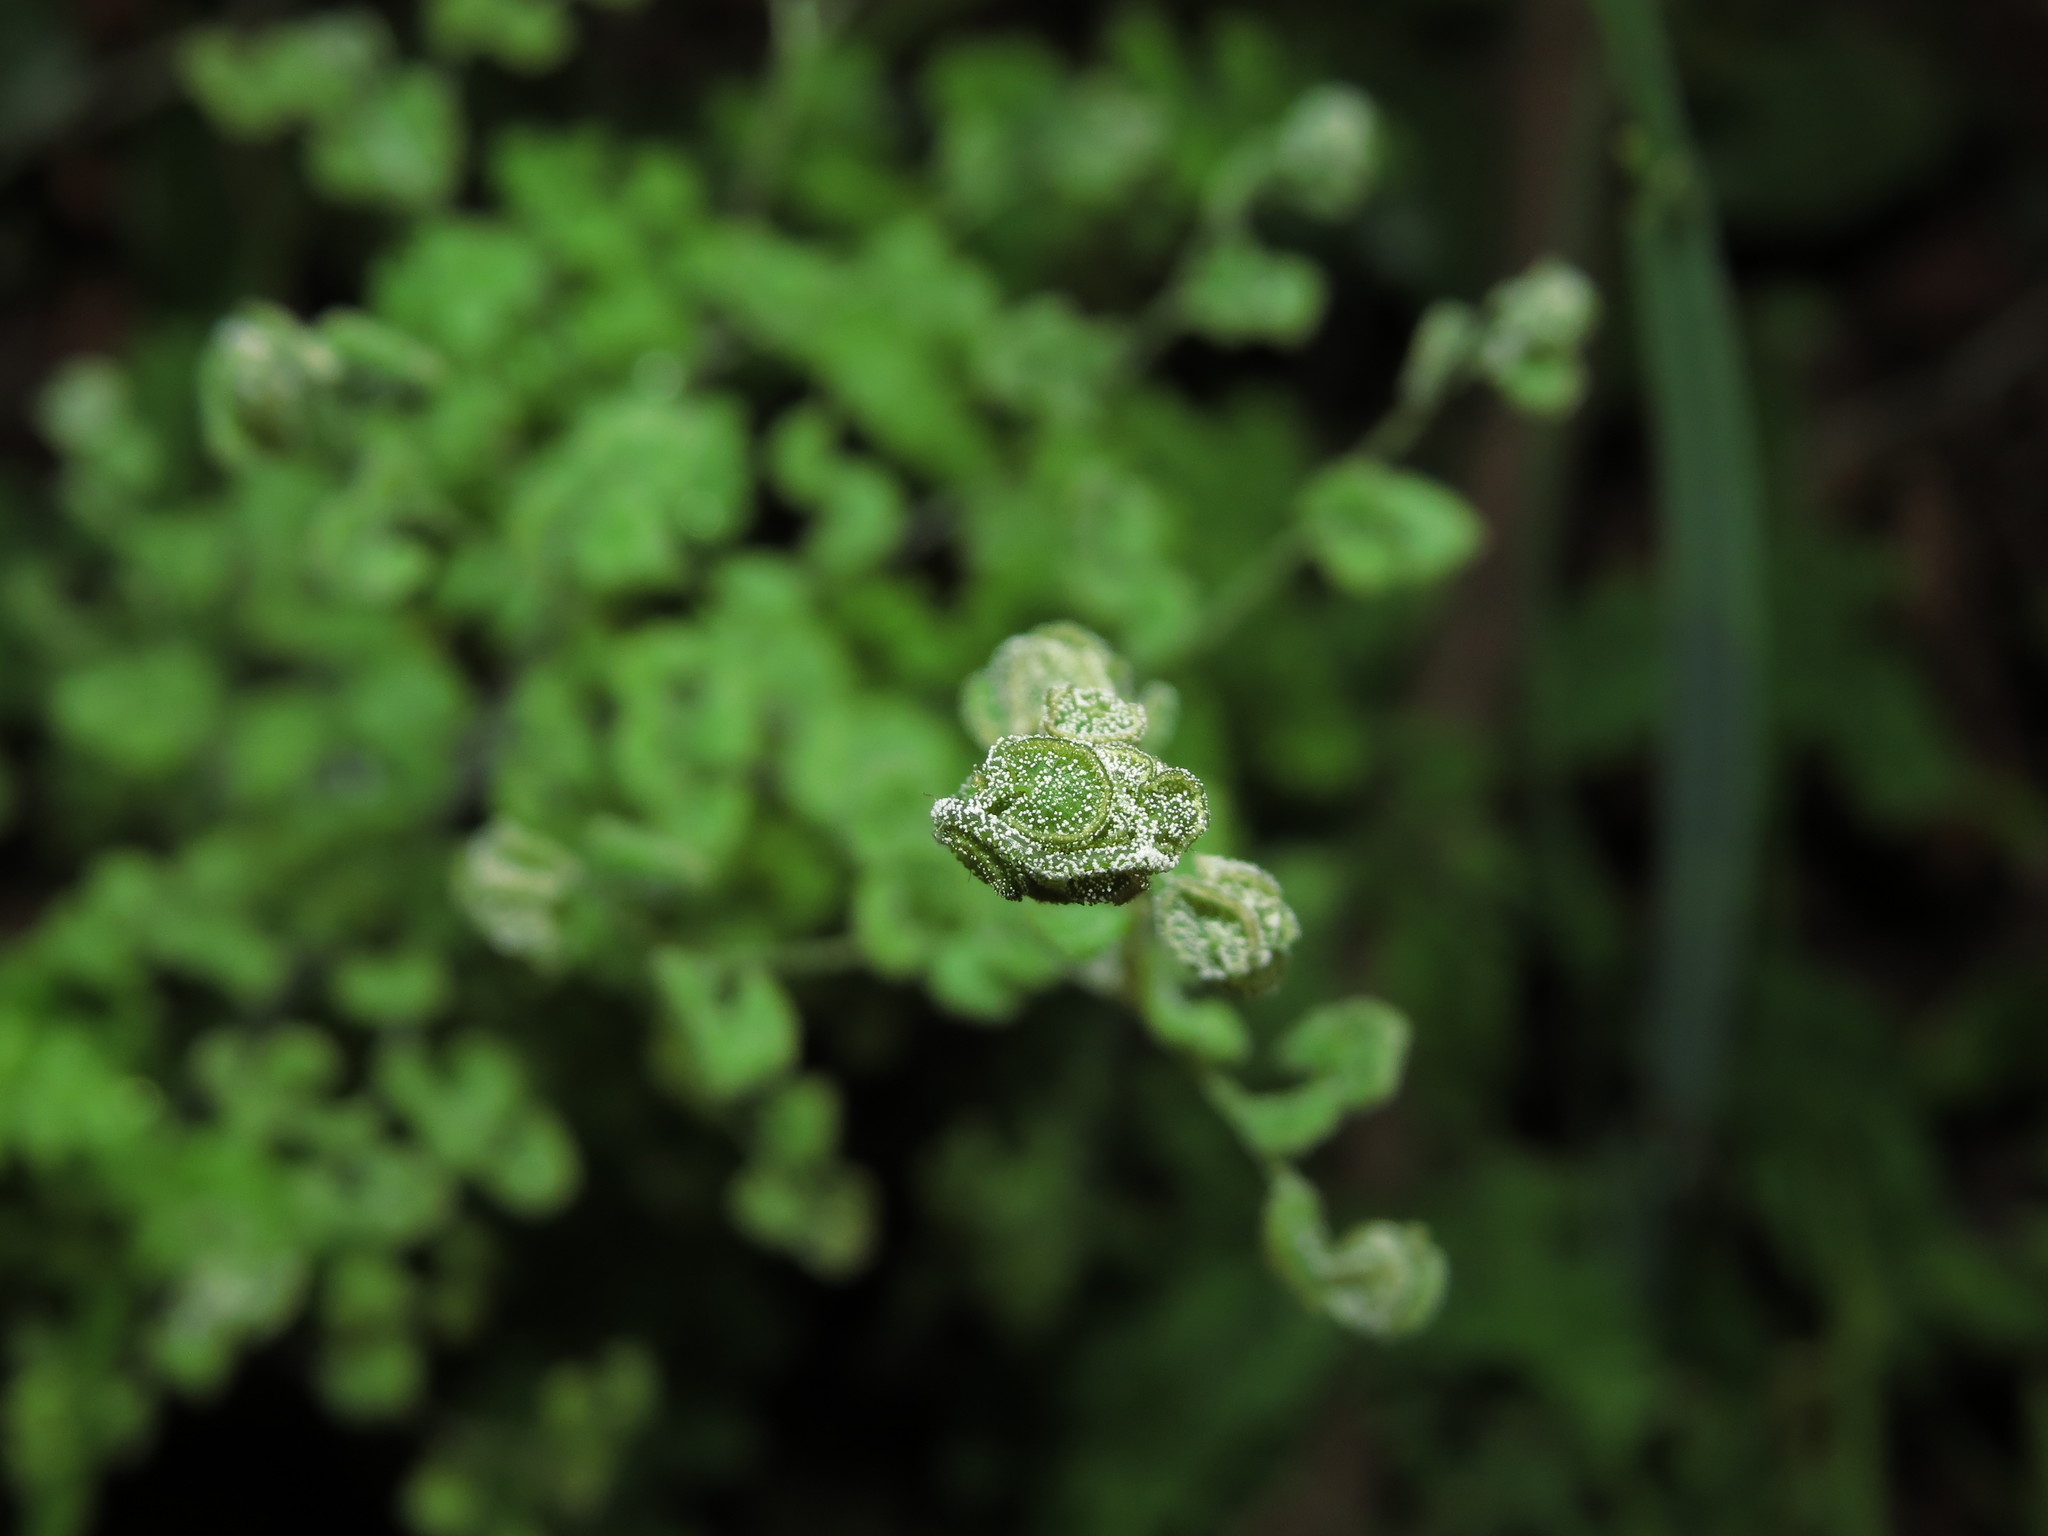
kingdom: Plantae
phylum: Tracheophyta
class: Polypodiopsida
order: Polypodiales
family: Pteridaceae
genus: Adiantum
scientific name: Adiantum chilense
